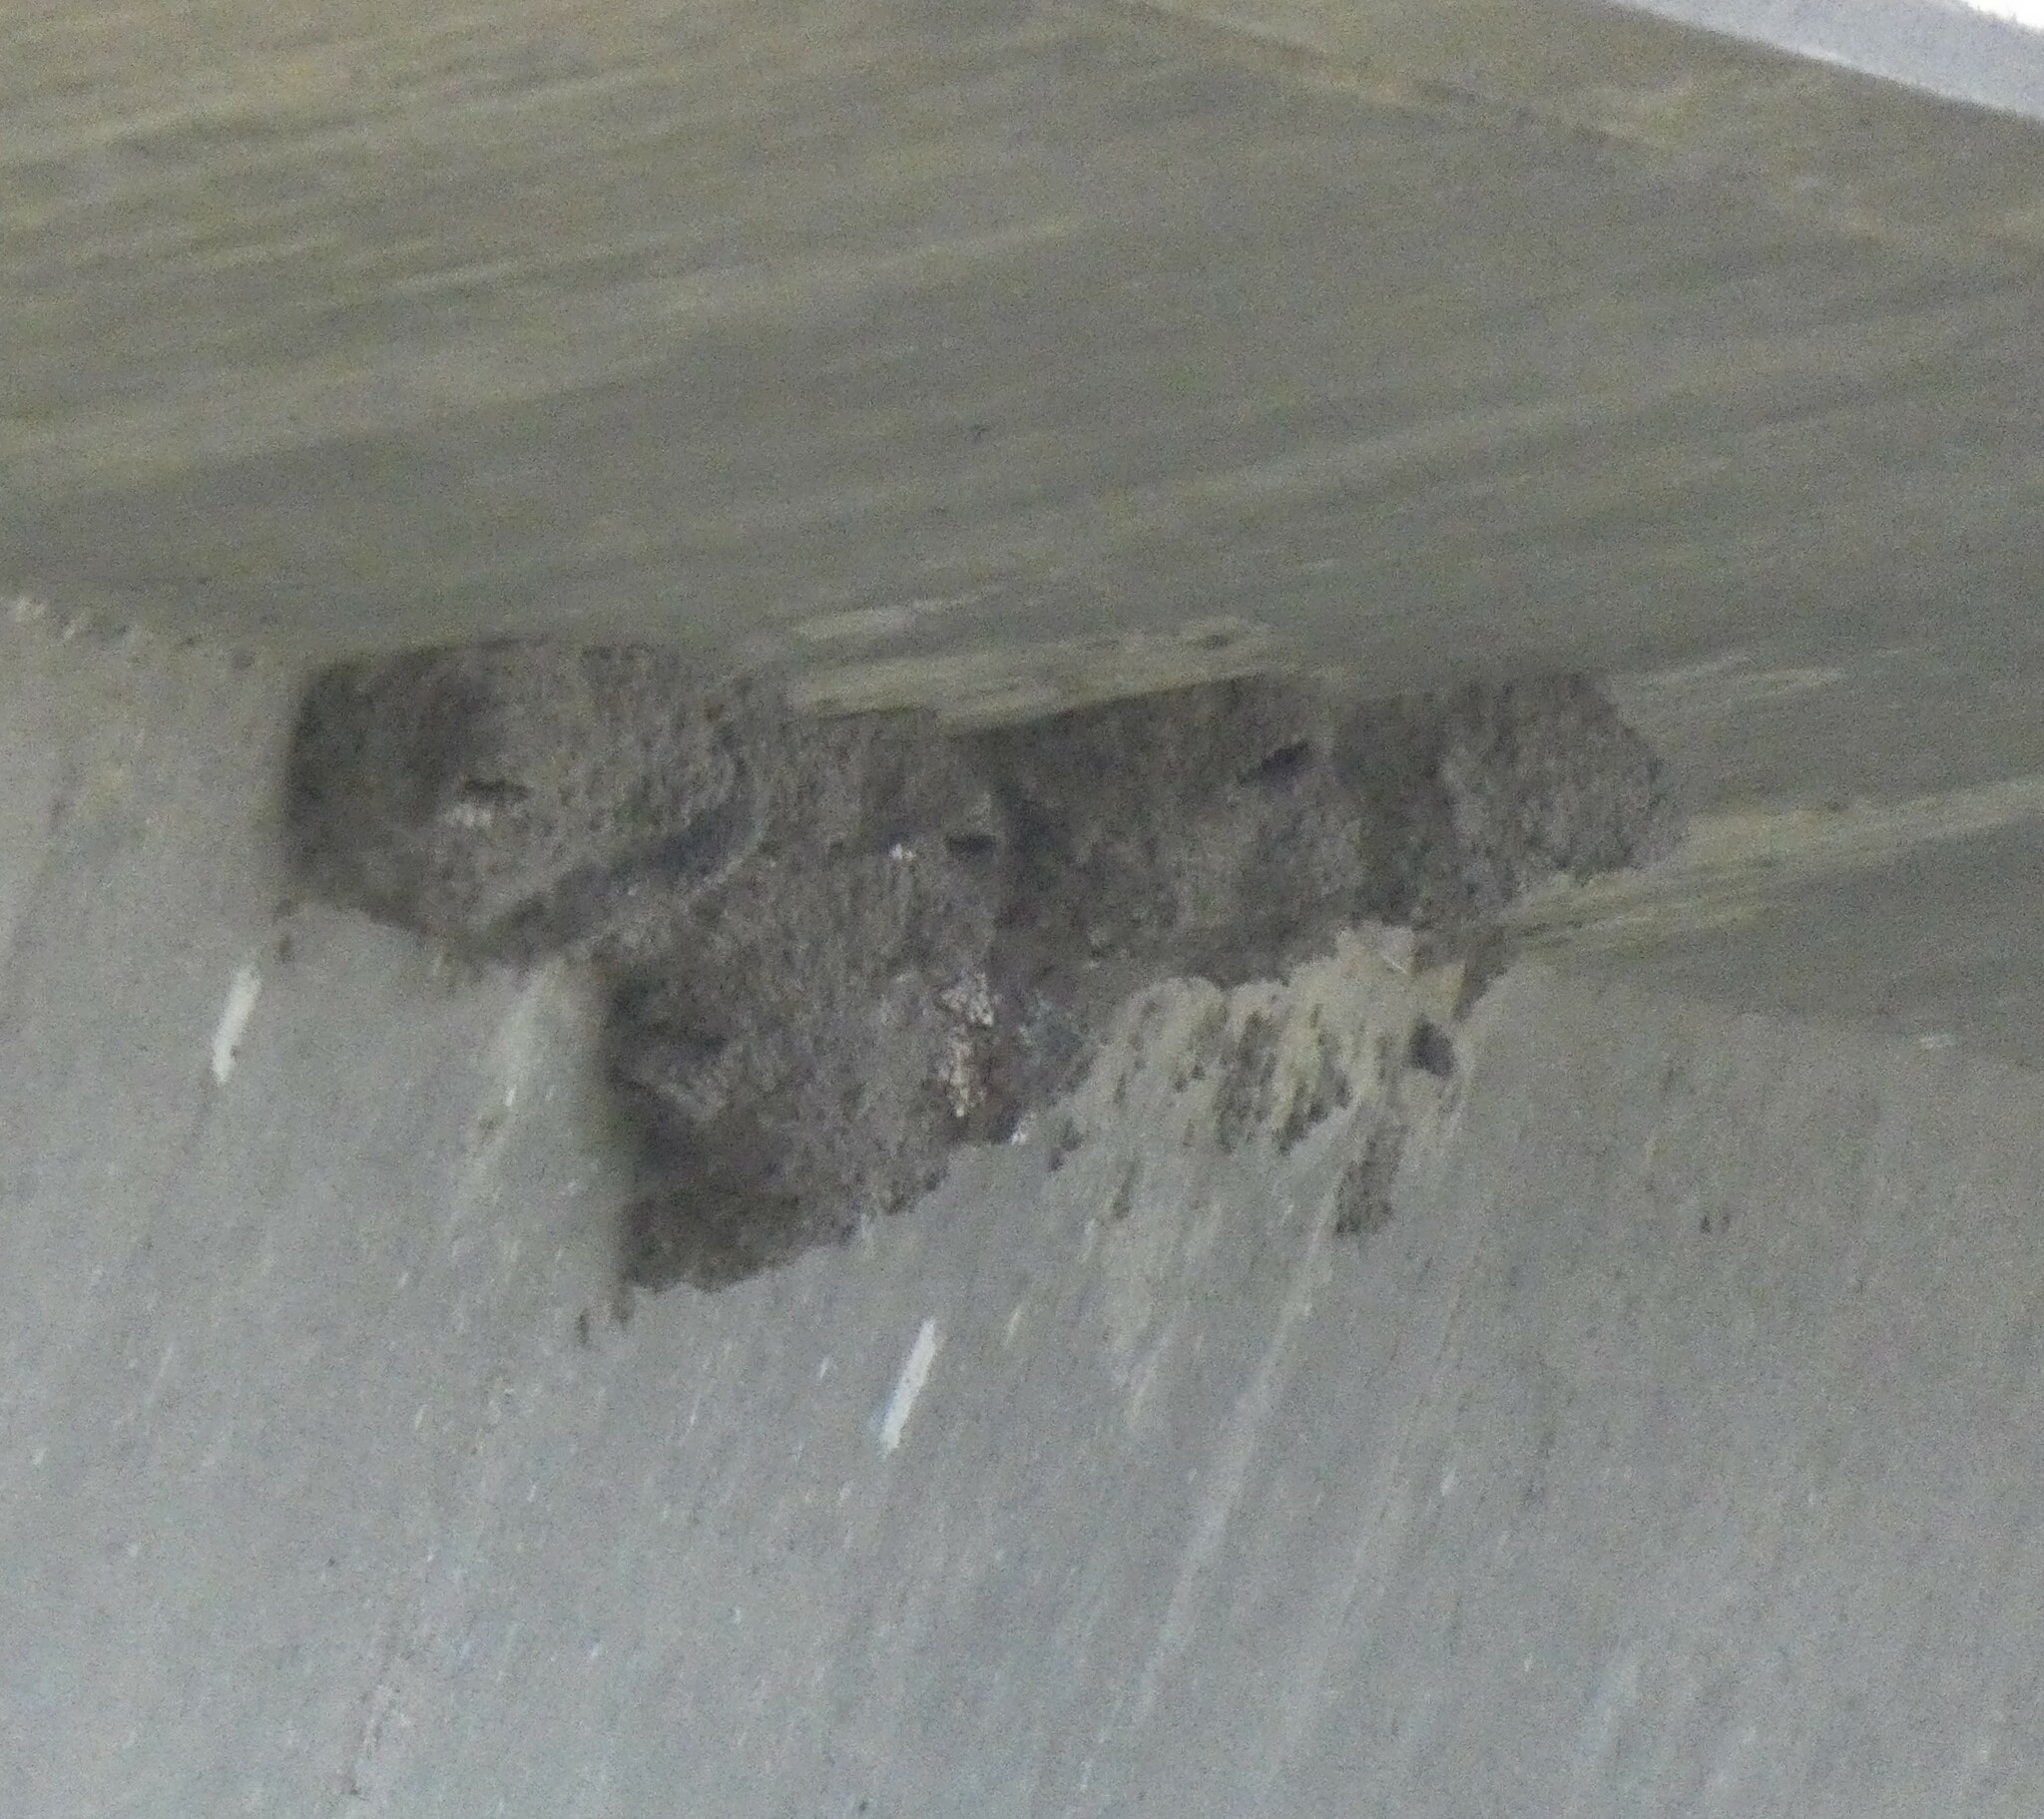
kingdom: Animalia
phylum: Chordata
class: Aves
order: Passeriformes
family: Hirundinidae
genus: Petrochelidon
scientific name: Petrochelidon pyrrhonota
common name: American cliff swallow
